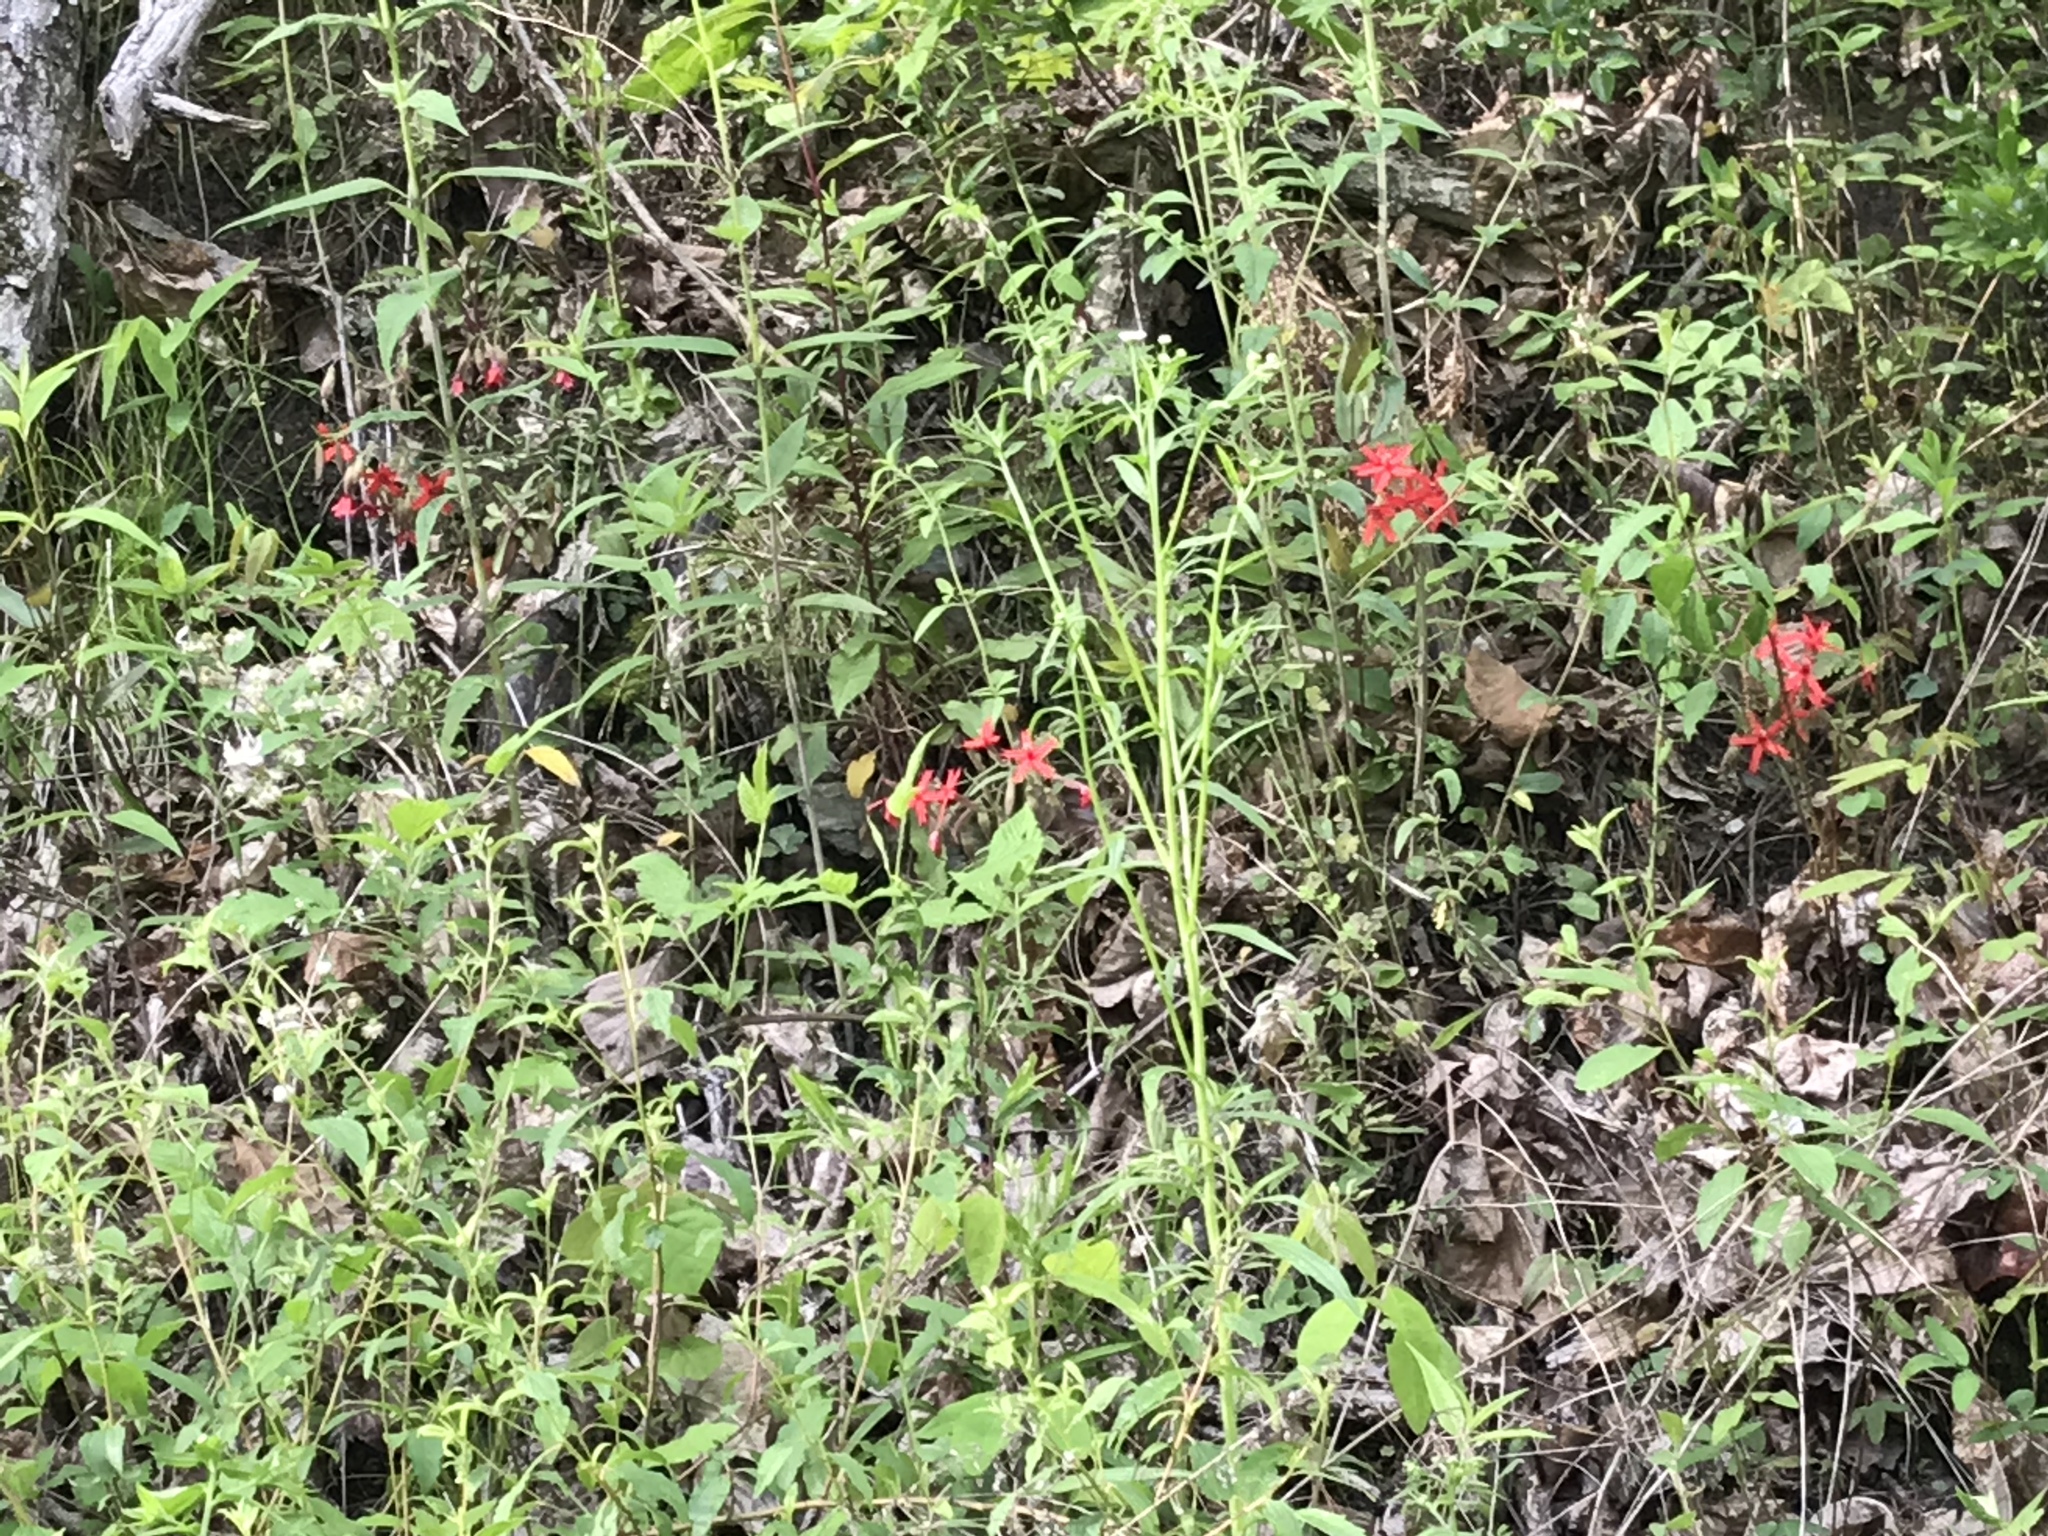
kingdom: Plantae
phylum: Tracheophyta
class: Magnoliopsida
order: Caryophyllales
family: Caryophyllaceae
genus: Silene
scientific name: Silene virginica
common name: Fire-pink
